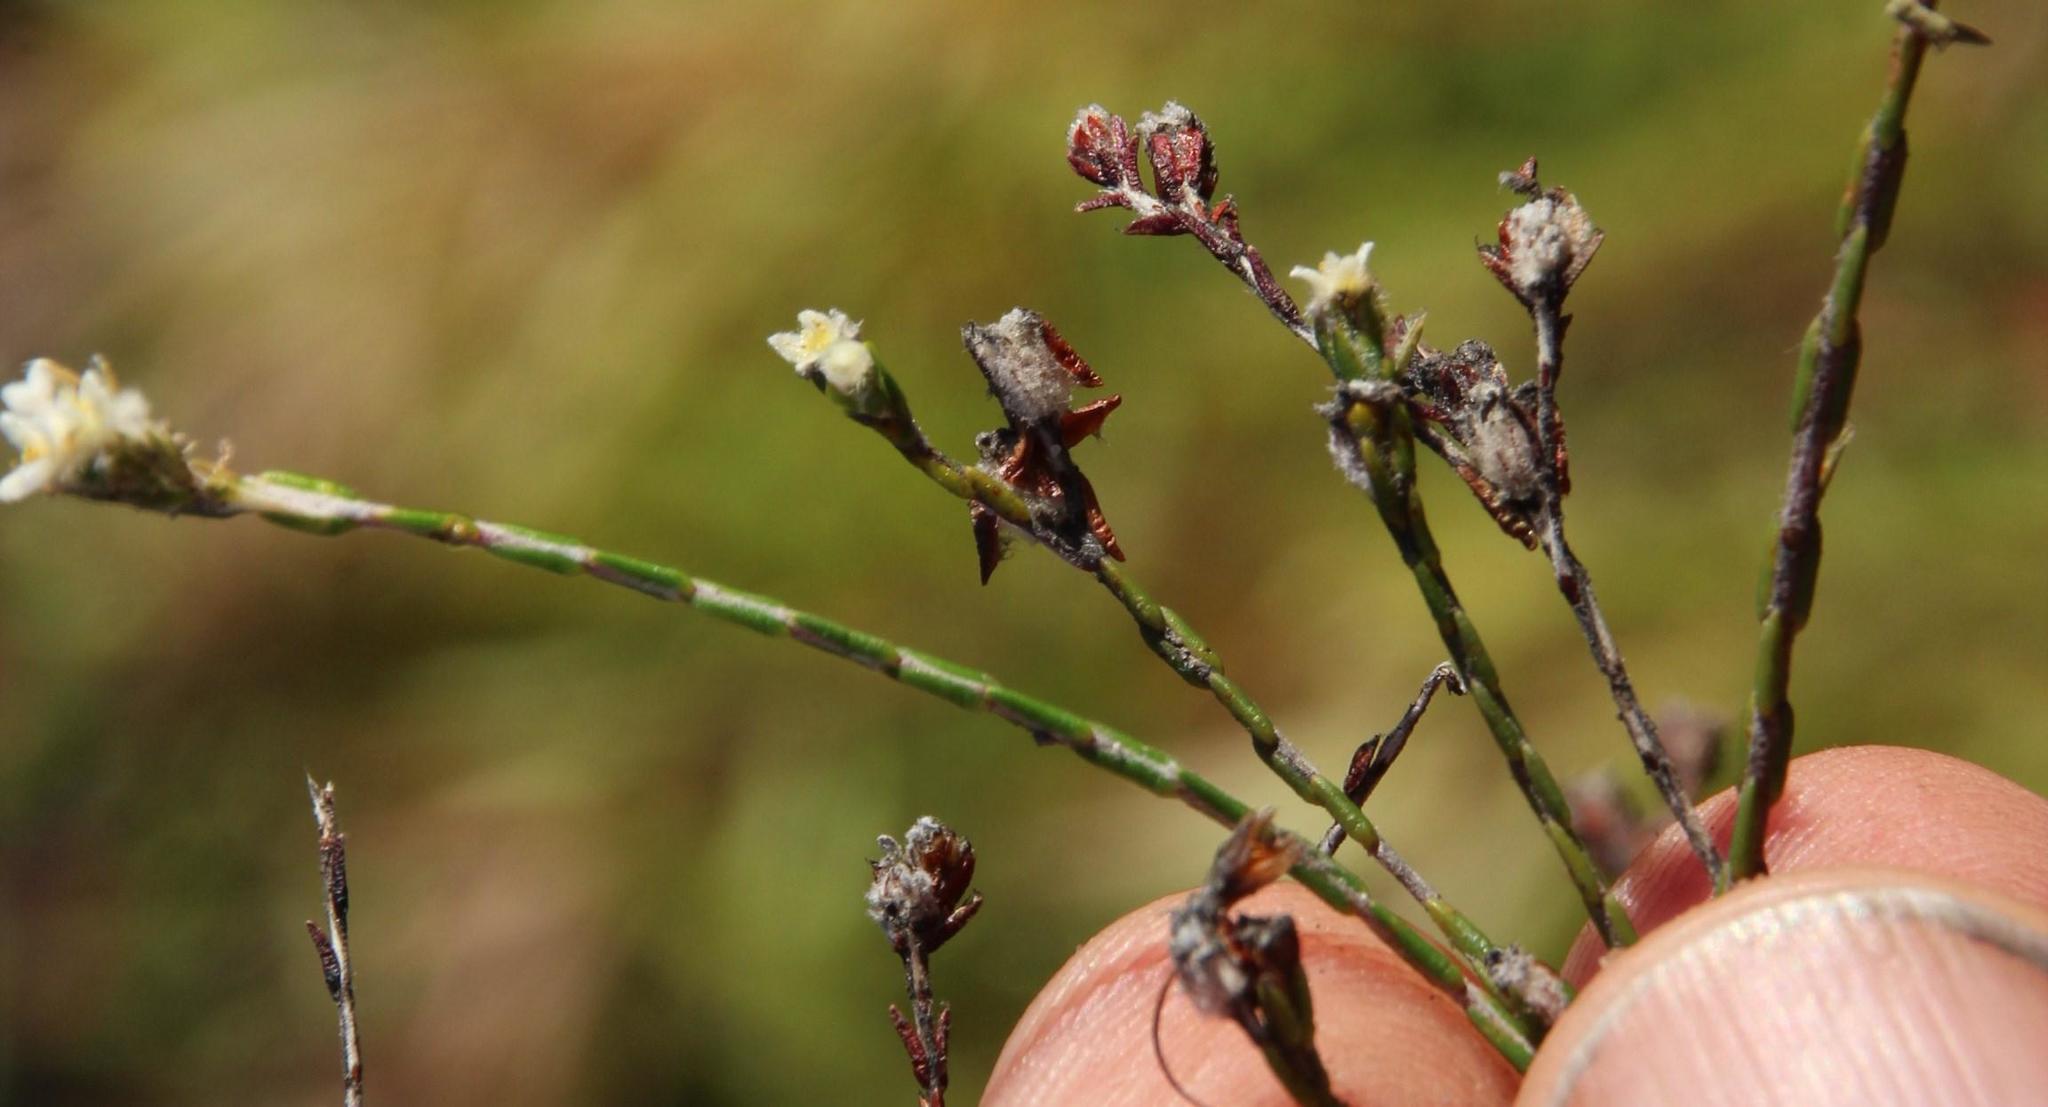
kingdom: Plantae
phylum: Tracheophyta
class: Magnoliopsida
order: Malvales
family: Thymelaeaceae
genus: Lachnaea
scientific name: Lachnaea villosa
